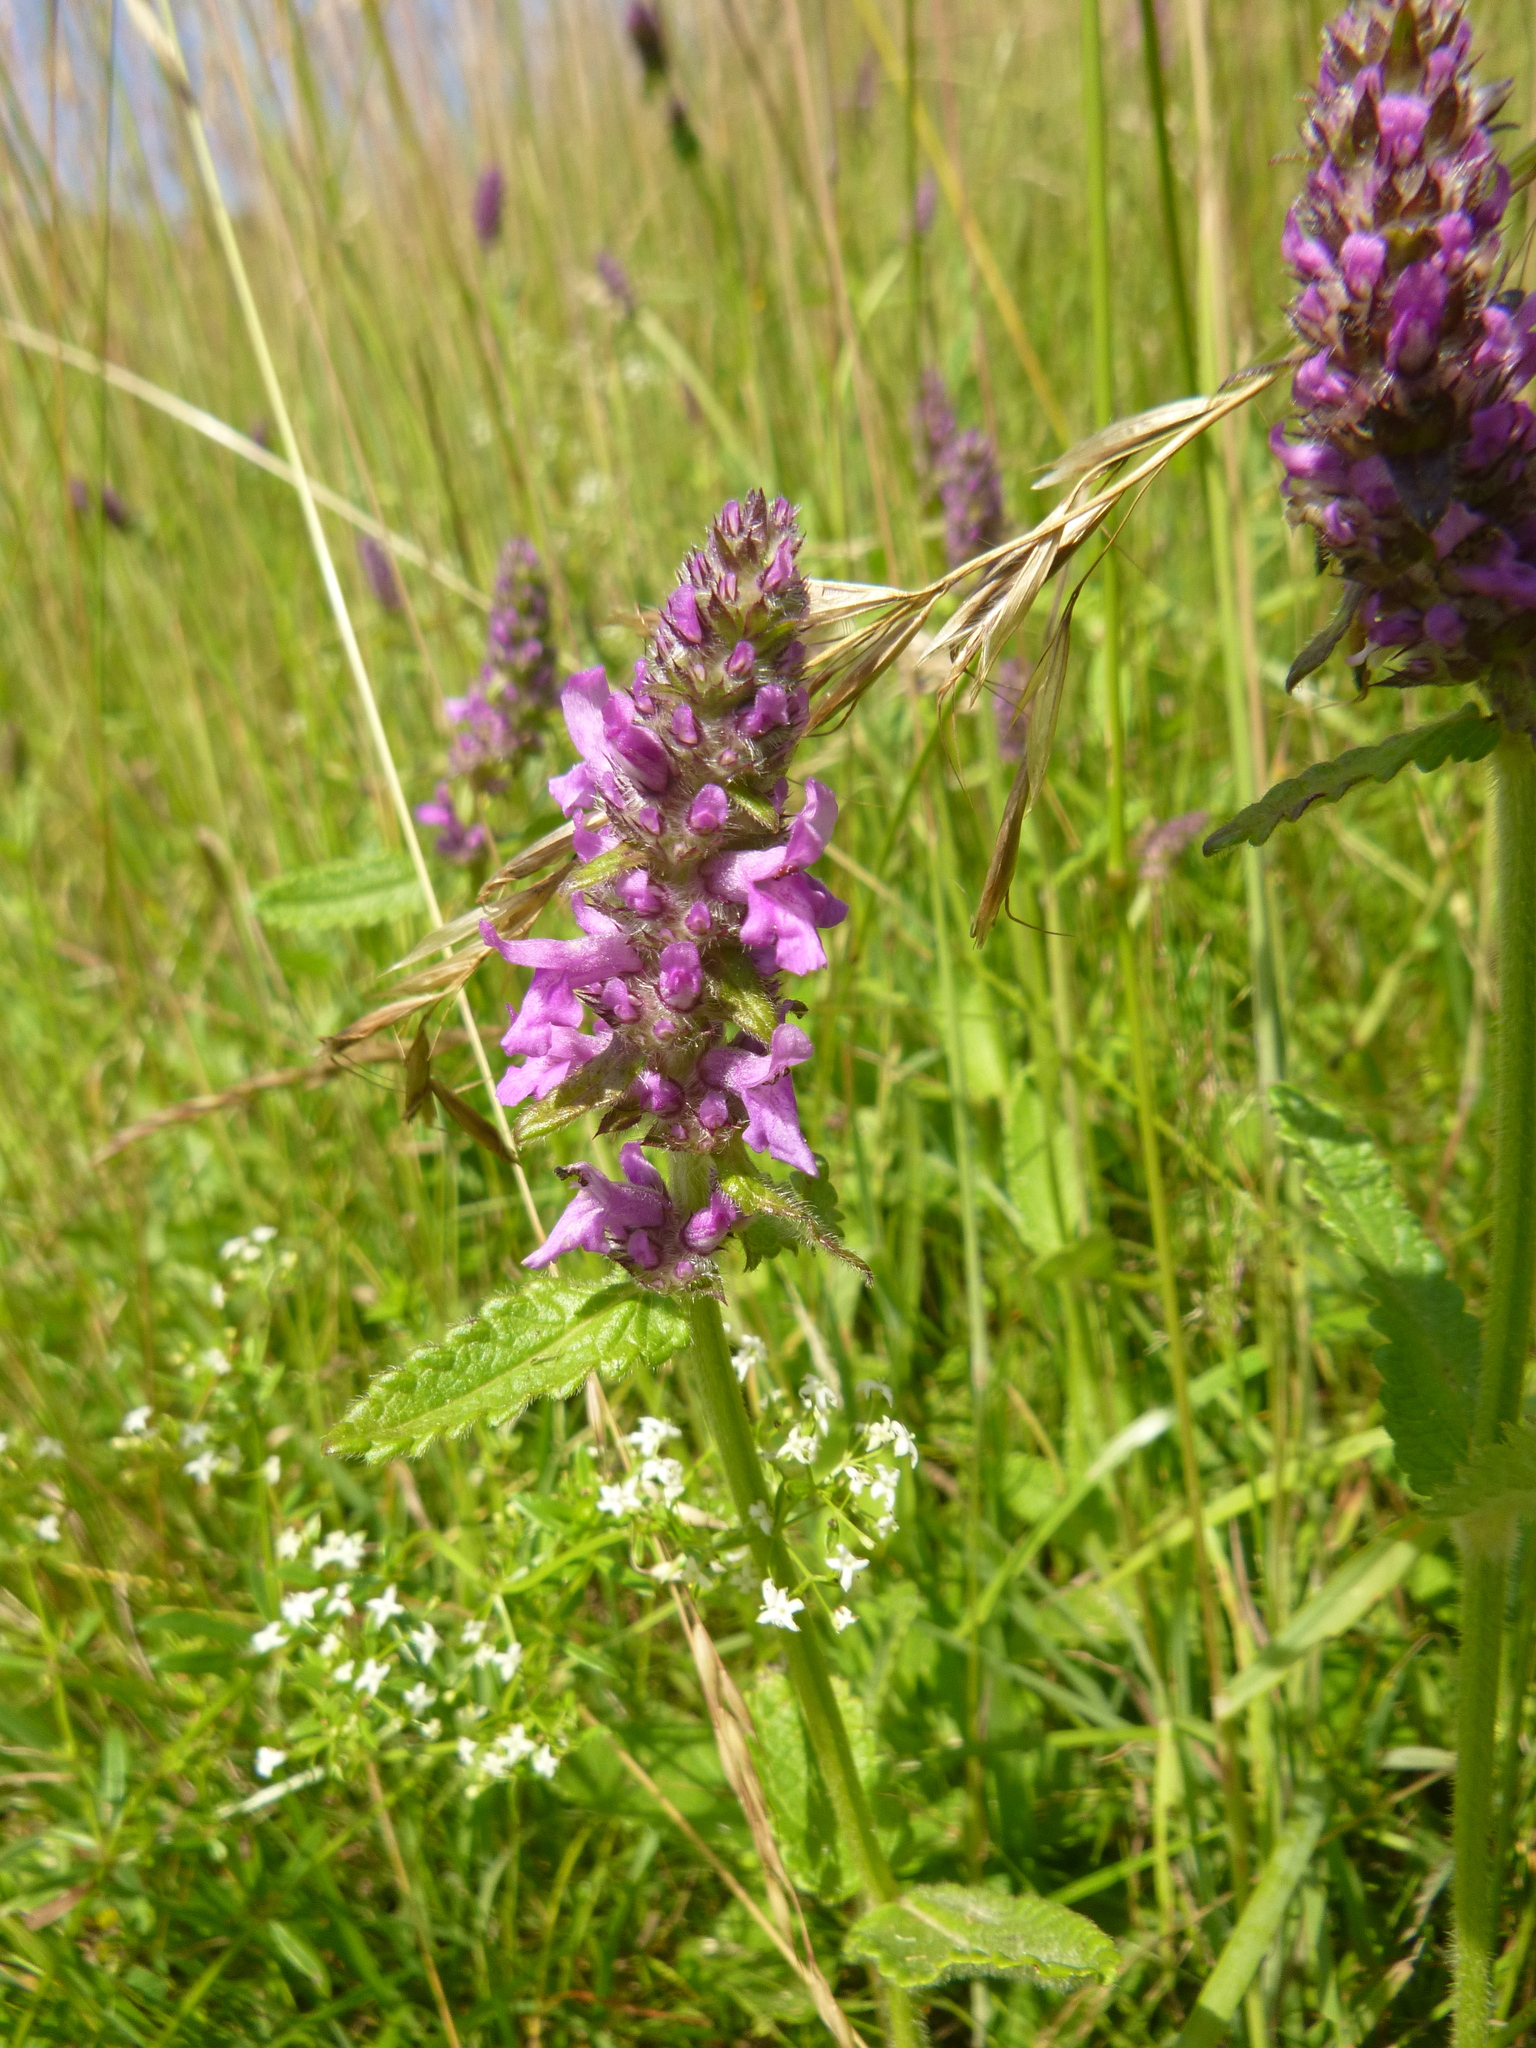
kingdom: Plantae
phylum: Tracheophyta
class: Magnoliopsida
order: Lamiales
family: Lamiaceae
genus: Betonica
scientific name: Betonica officinalis
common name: Bishop's-wort
